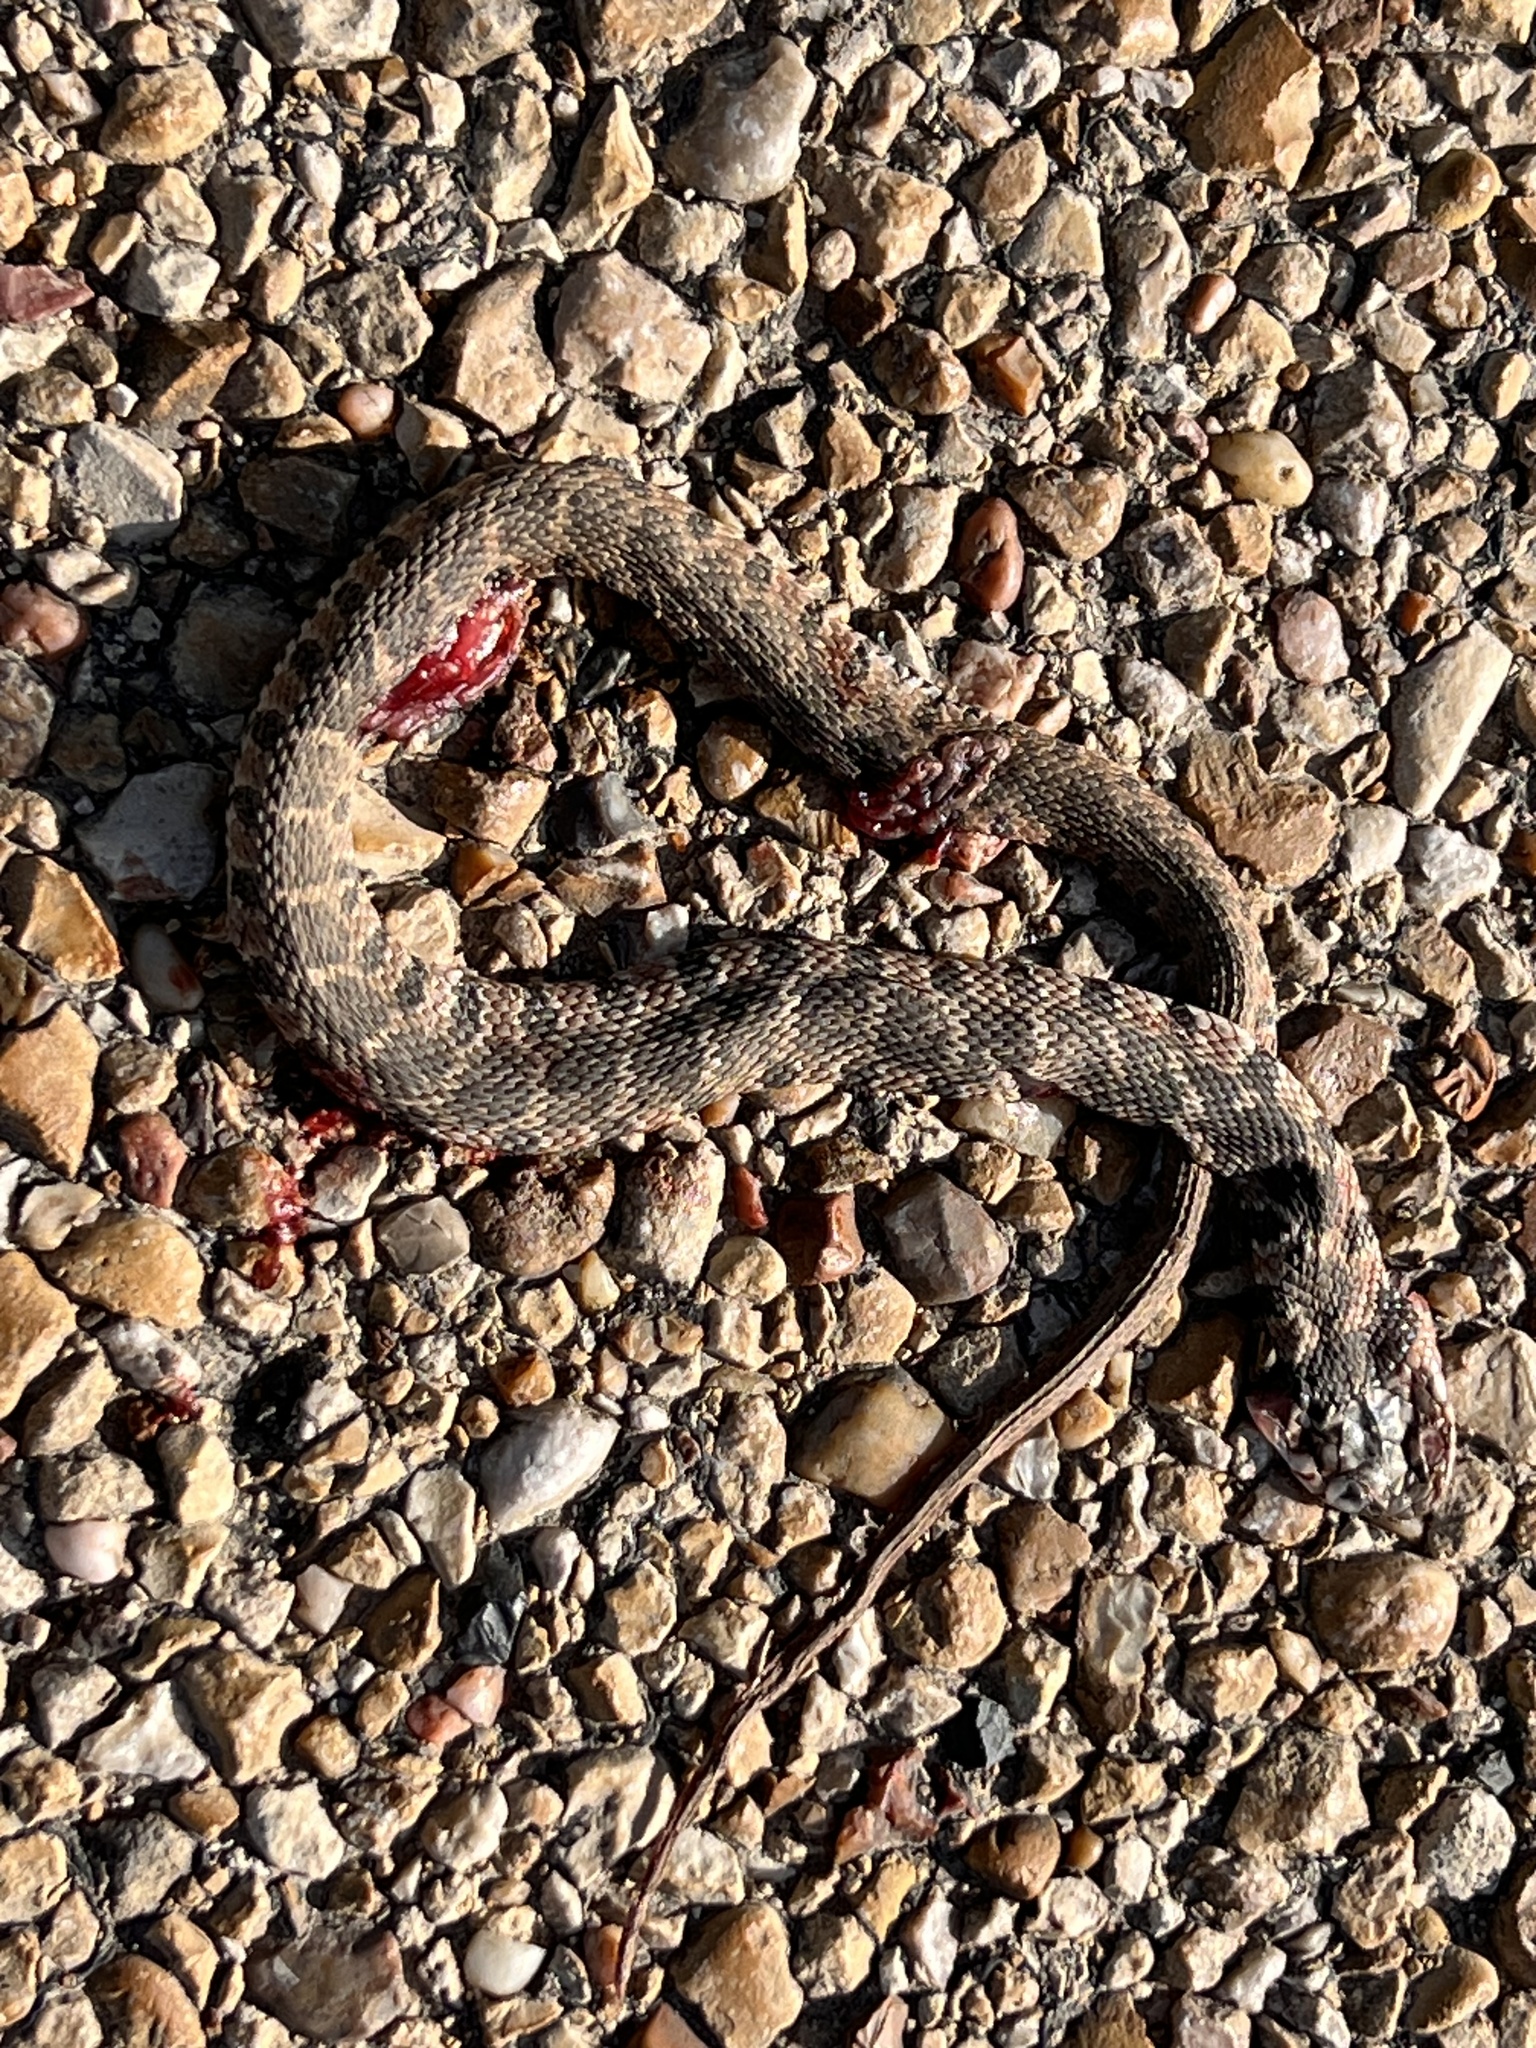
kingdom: Animalia
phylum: Chordata
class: Squamata
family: Colubridae
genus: Nerodia
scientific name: Nerodia erythrogaster
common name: Plainbelly water snake
